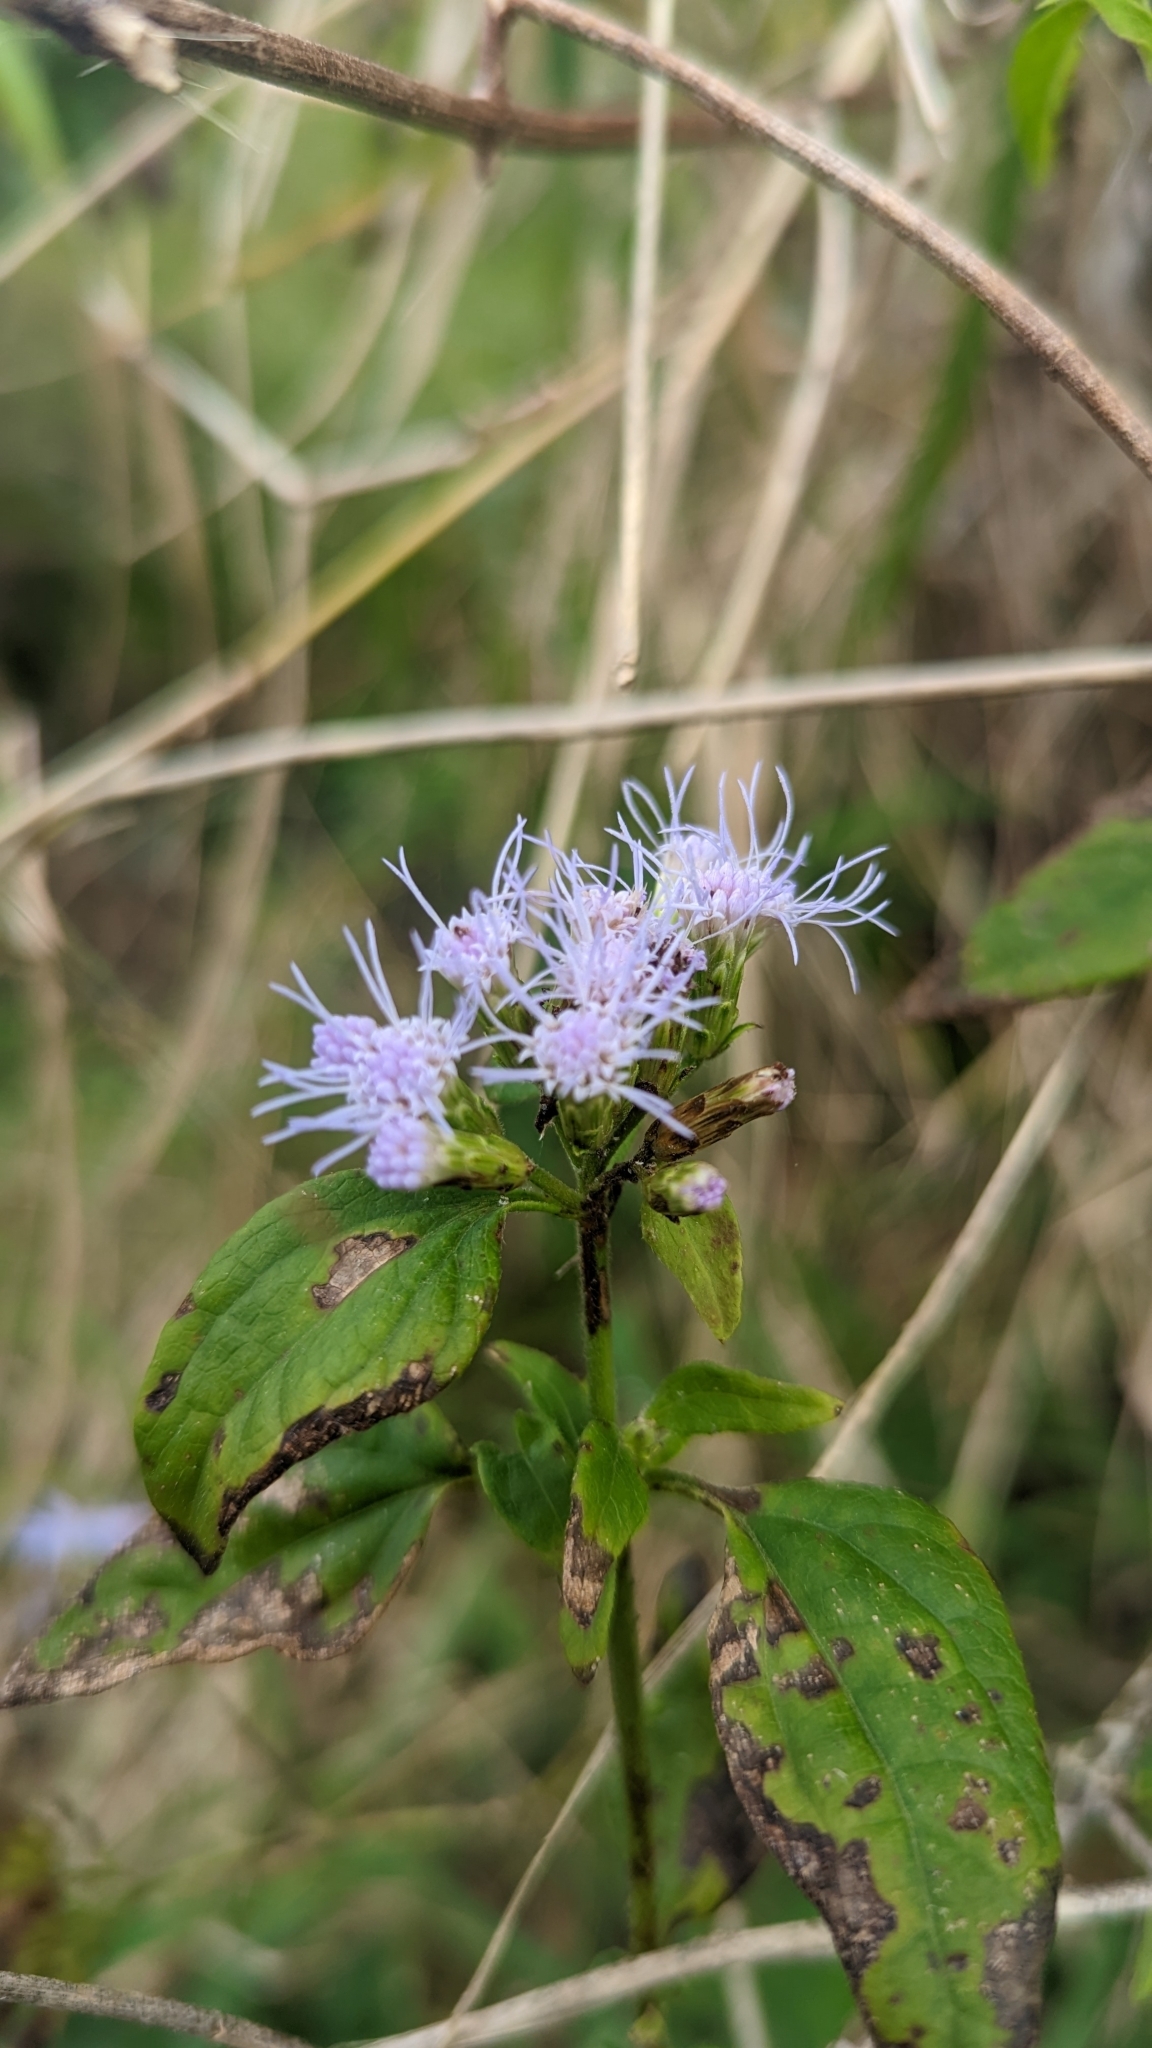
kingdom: Plantae
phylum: Tracheophyta
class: Magnoliopsida
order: Asterales
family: Asteraceae
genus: Chromolaena
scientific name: Chromolaena odorata
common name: Siamweed
